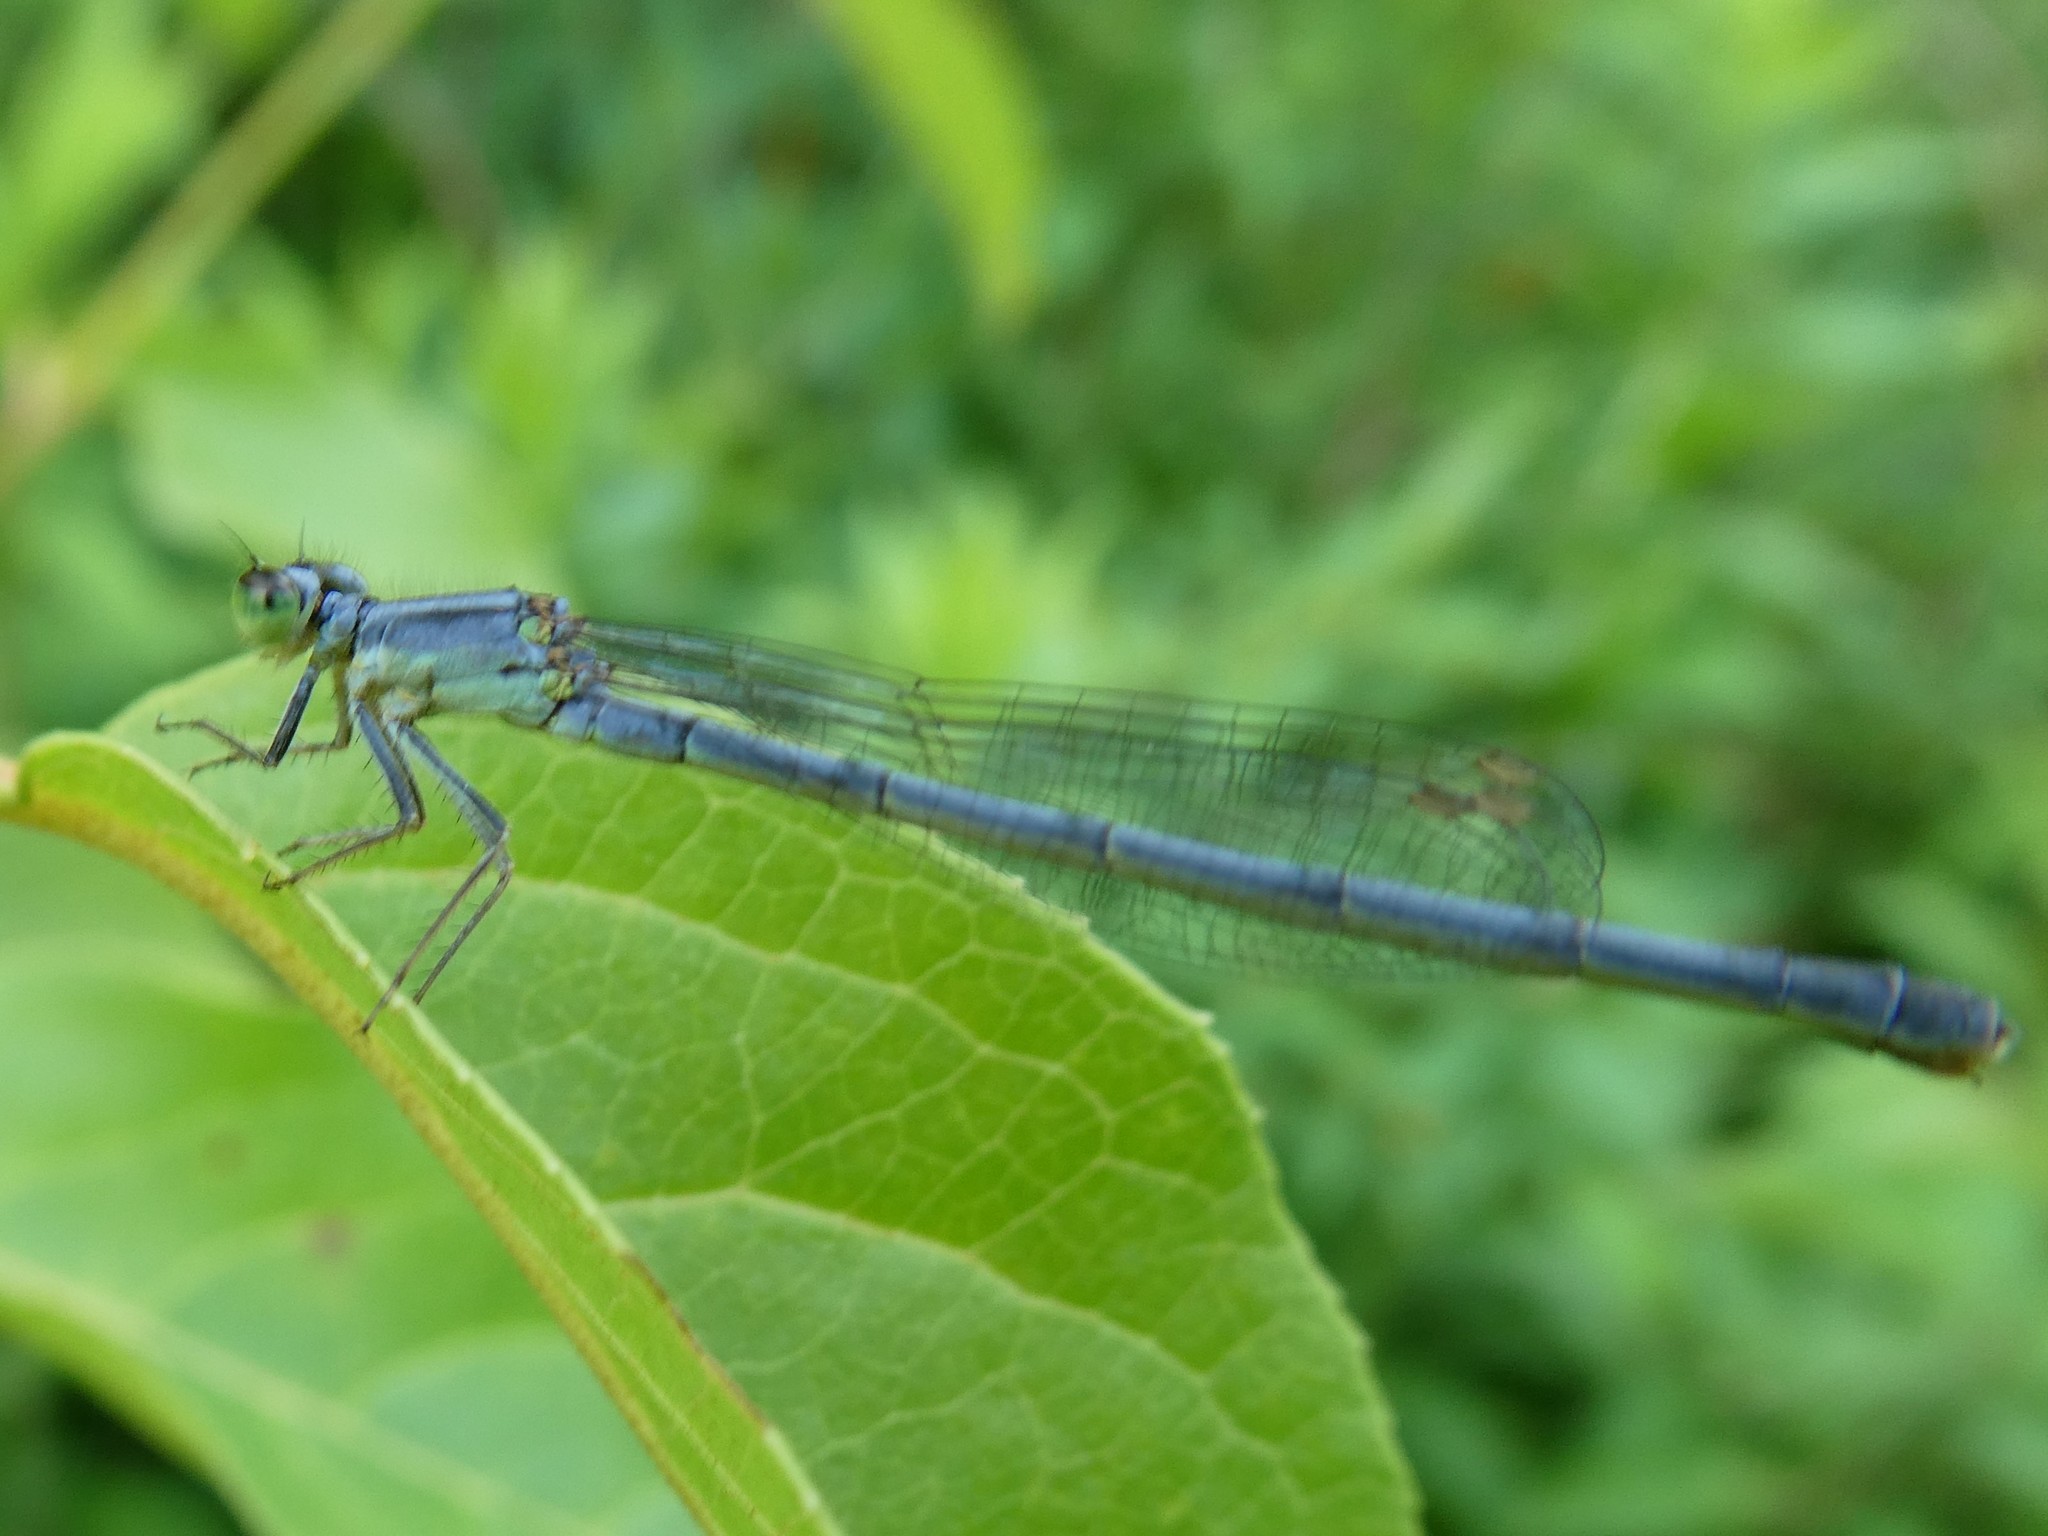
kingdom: Animalia
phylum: Arthropoda
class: Insecta
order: Odonata
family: Coenagrionidae
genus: Ischnura
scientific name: Ischnura verticalis
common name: Eastern forktail
